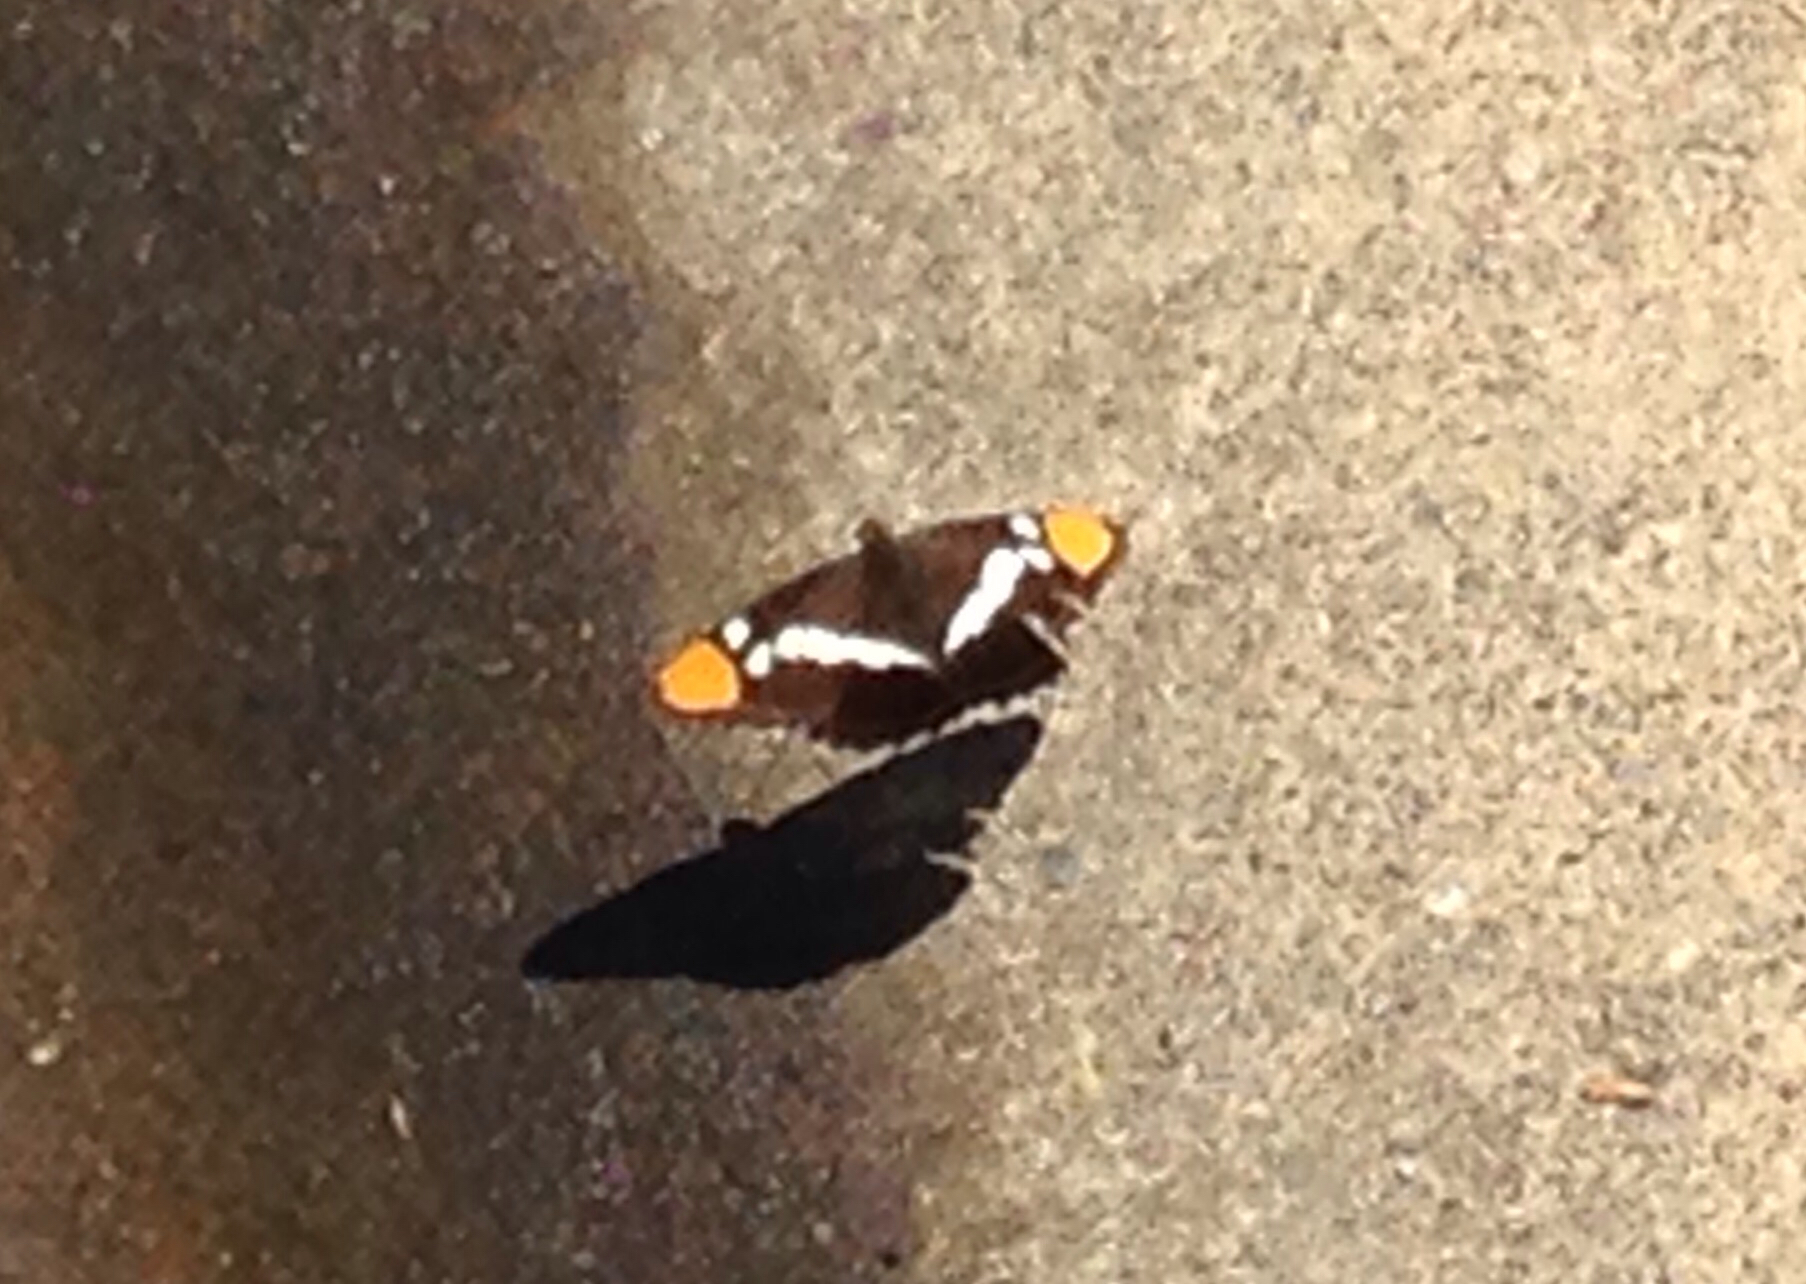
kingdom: Animalia
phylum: Arthropoda
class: Insecta
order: Lepidoptera
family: Nymphalidae
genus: Limenitis
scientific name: Limenitis bredowii
